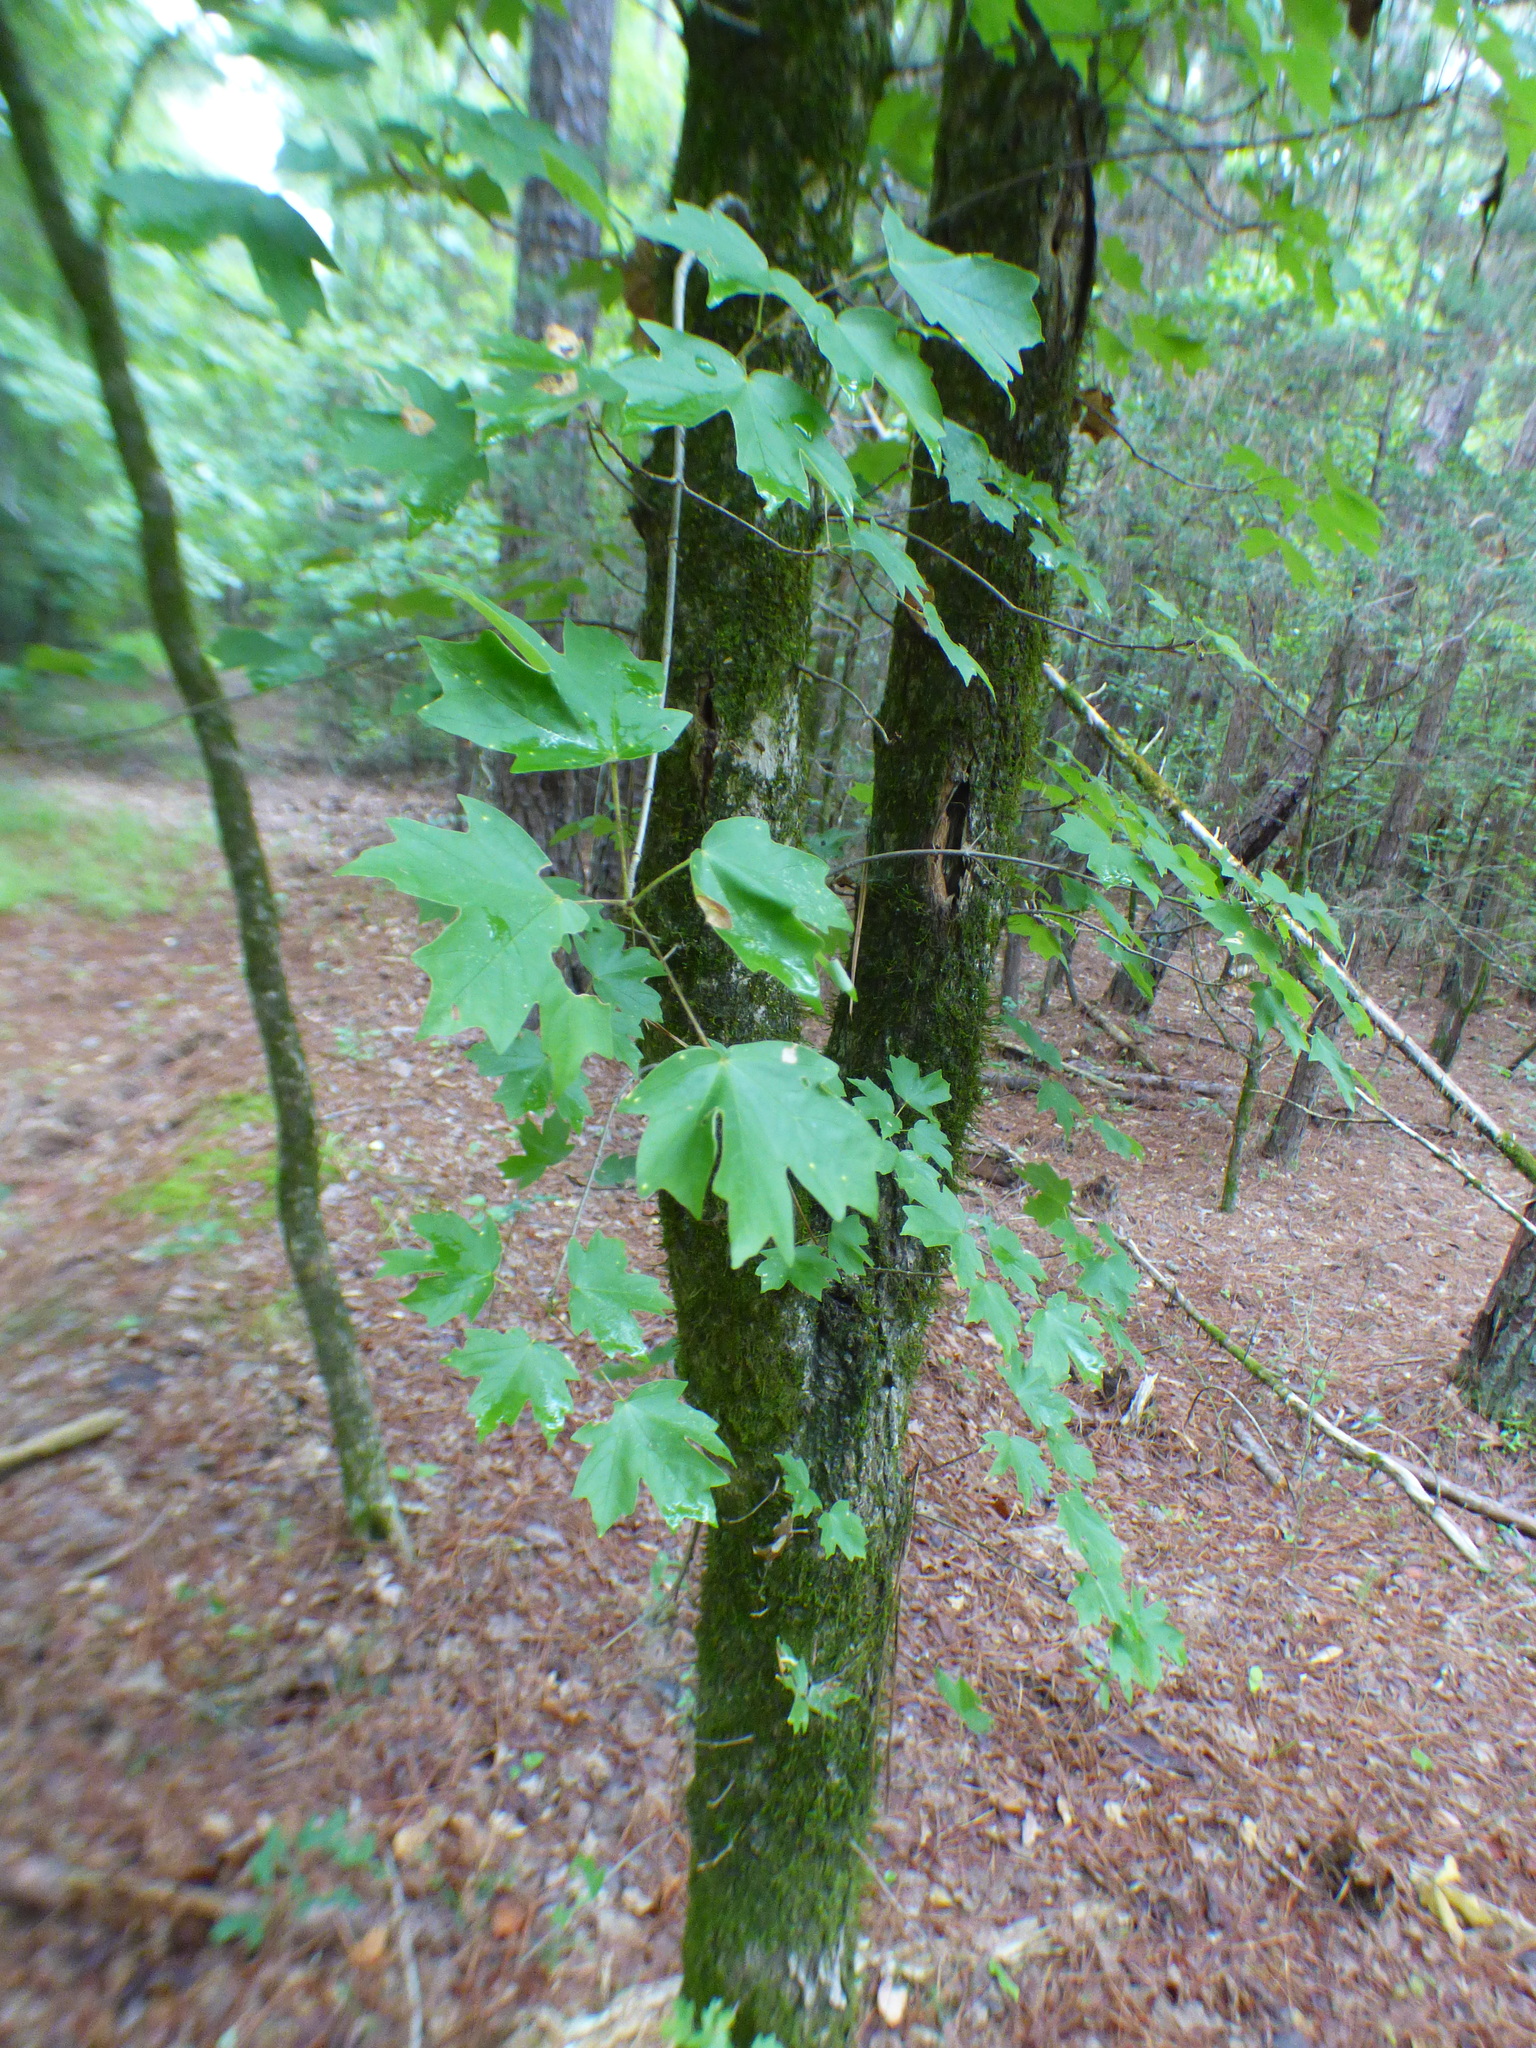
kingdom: Plantae
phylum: Tracheophyta
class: Magnoliopsida
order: Sapindales
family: Sapindaceae
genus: Acer
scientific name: Acer floridanum
